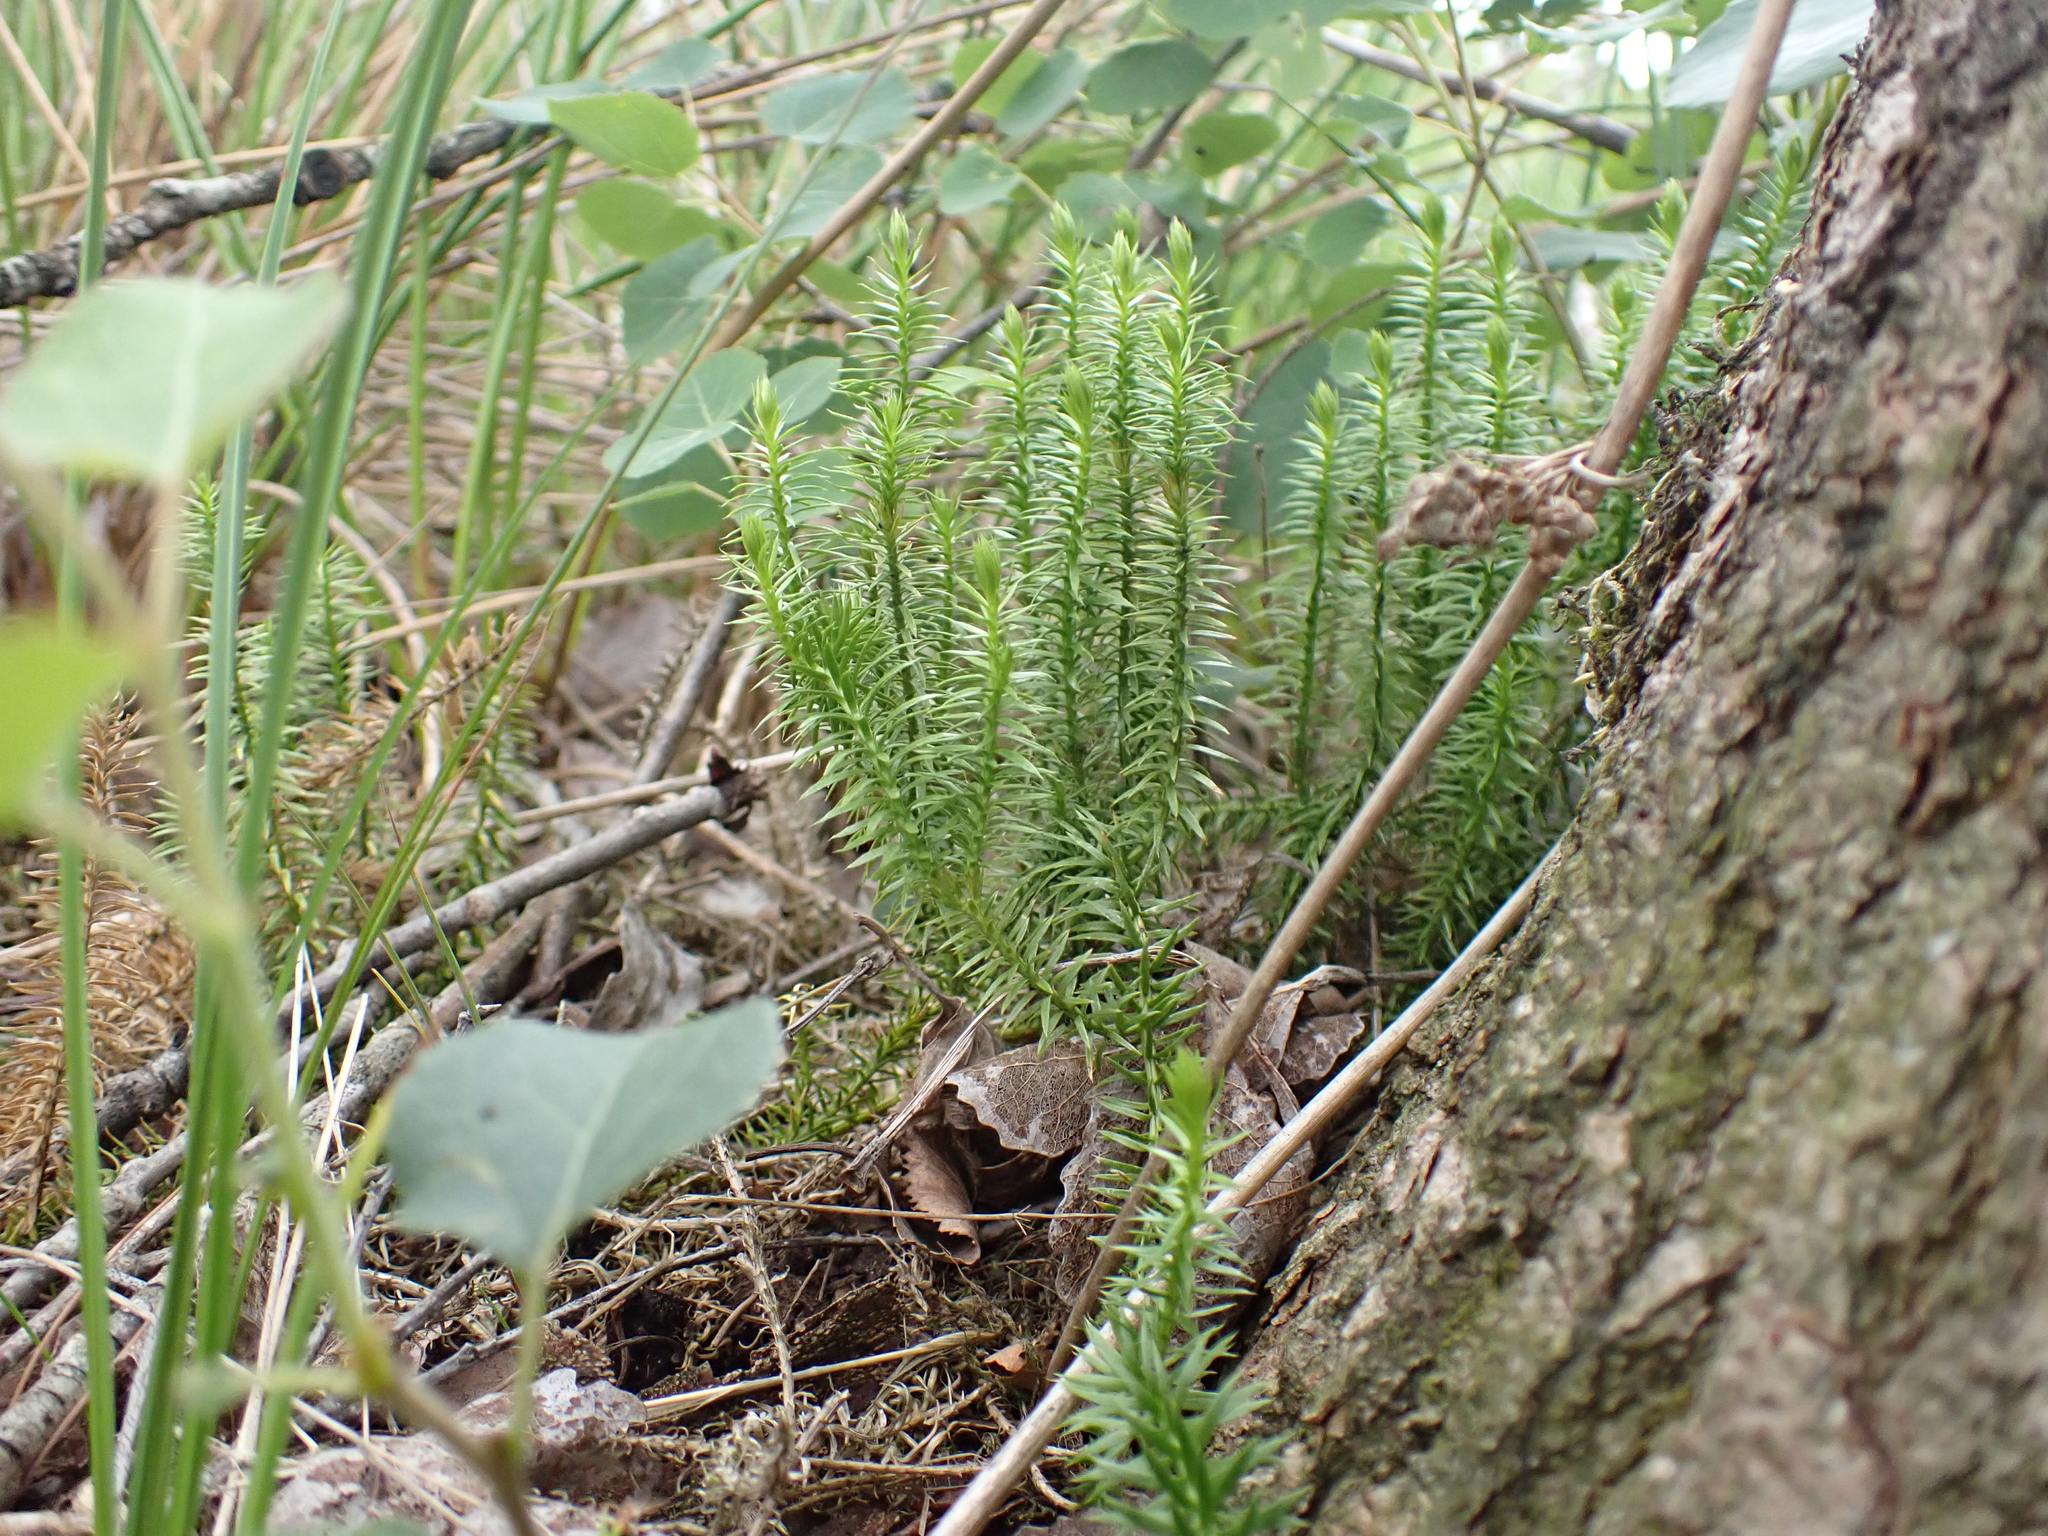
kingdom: Plantae
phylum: Tracheophyta
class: Lycopodiopsida
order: Lycopodiales
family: Lycopodiaceae
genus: Spinulum
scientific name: Spinulum annotinum
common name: Interrupted club-moss
